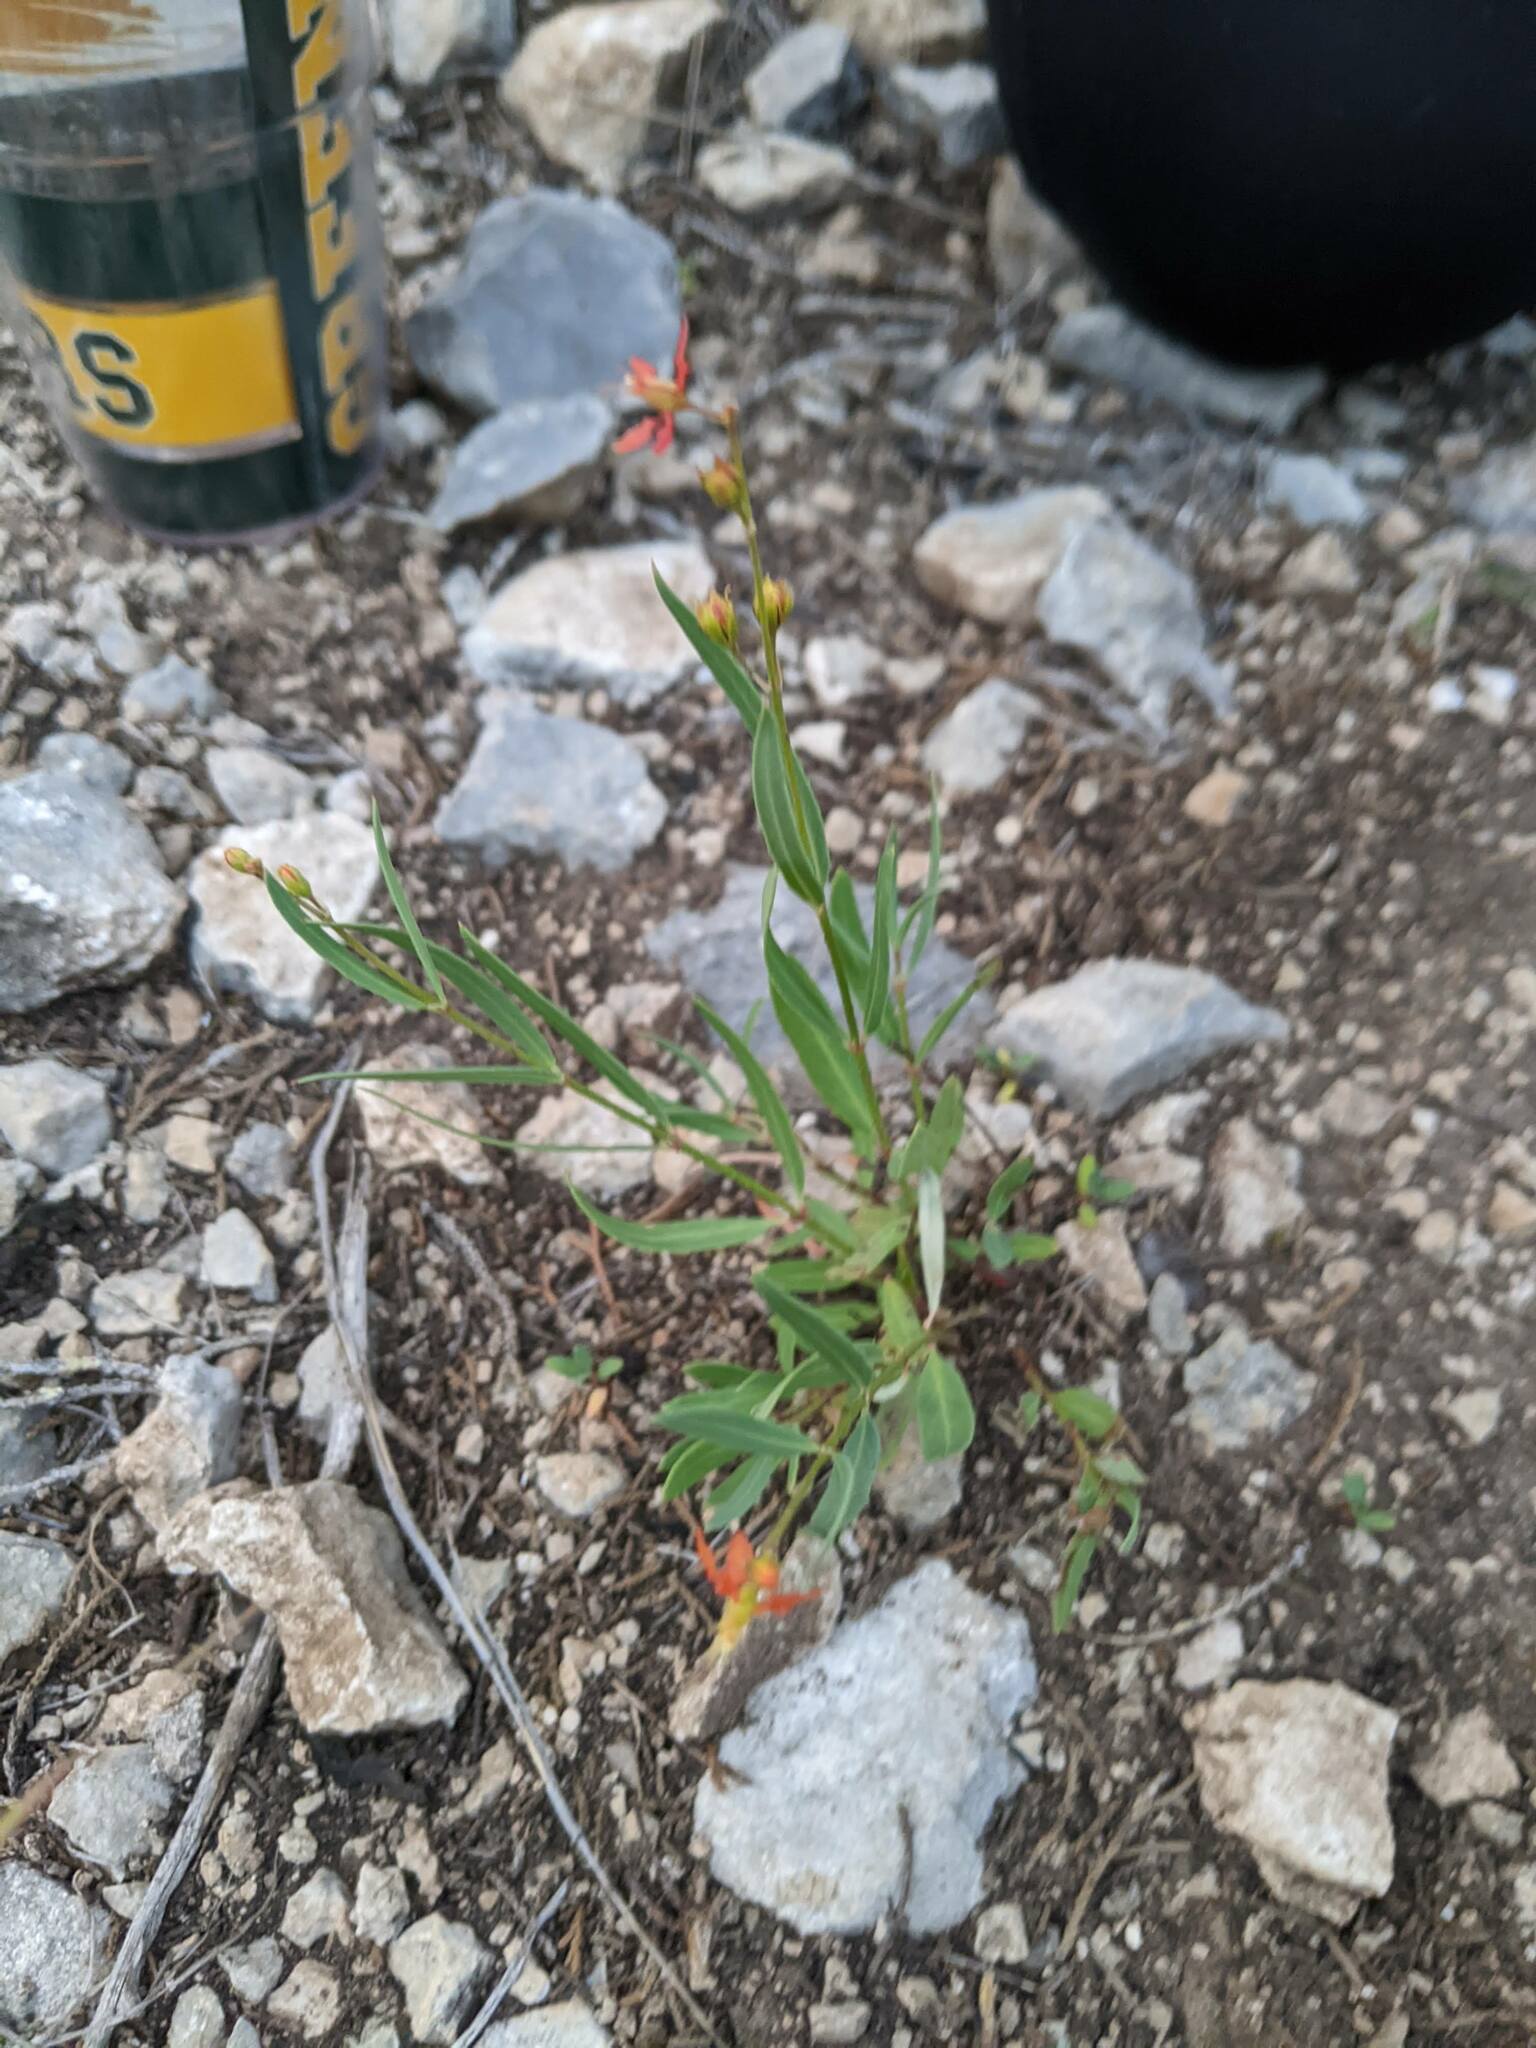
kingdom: Plantae
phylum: Tracheophyta
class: Magnoliopsida
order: Malpighiales
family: Malpighiaceae
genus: Galphimia
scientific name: Galphimia angustifolia
